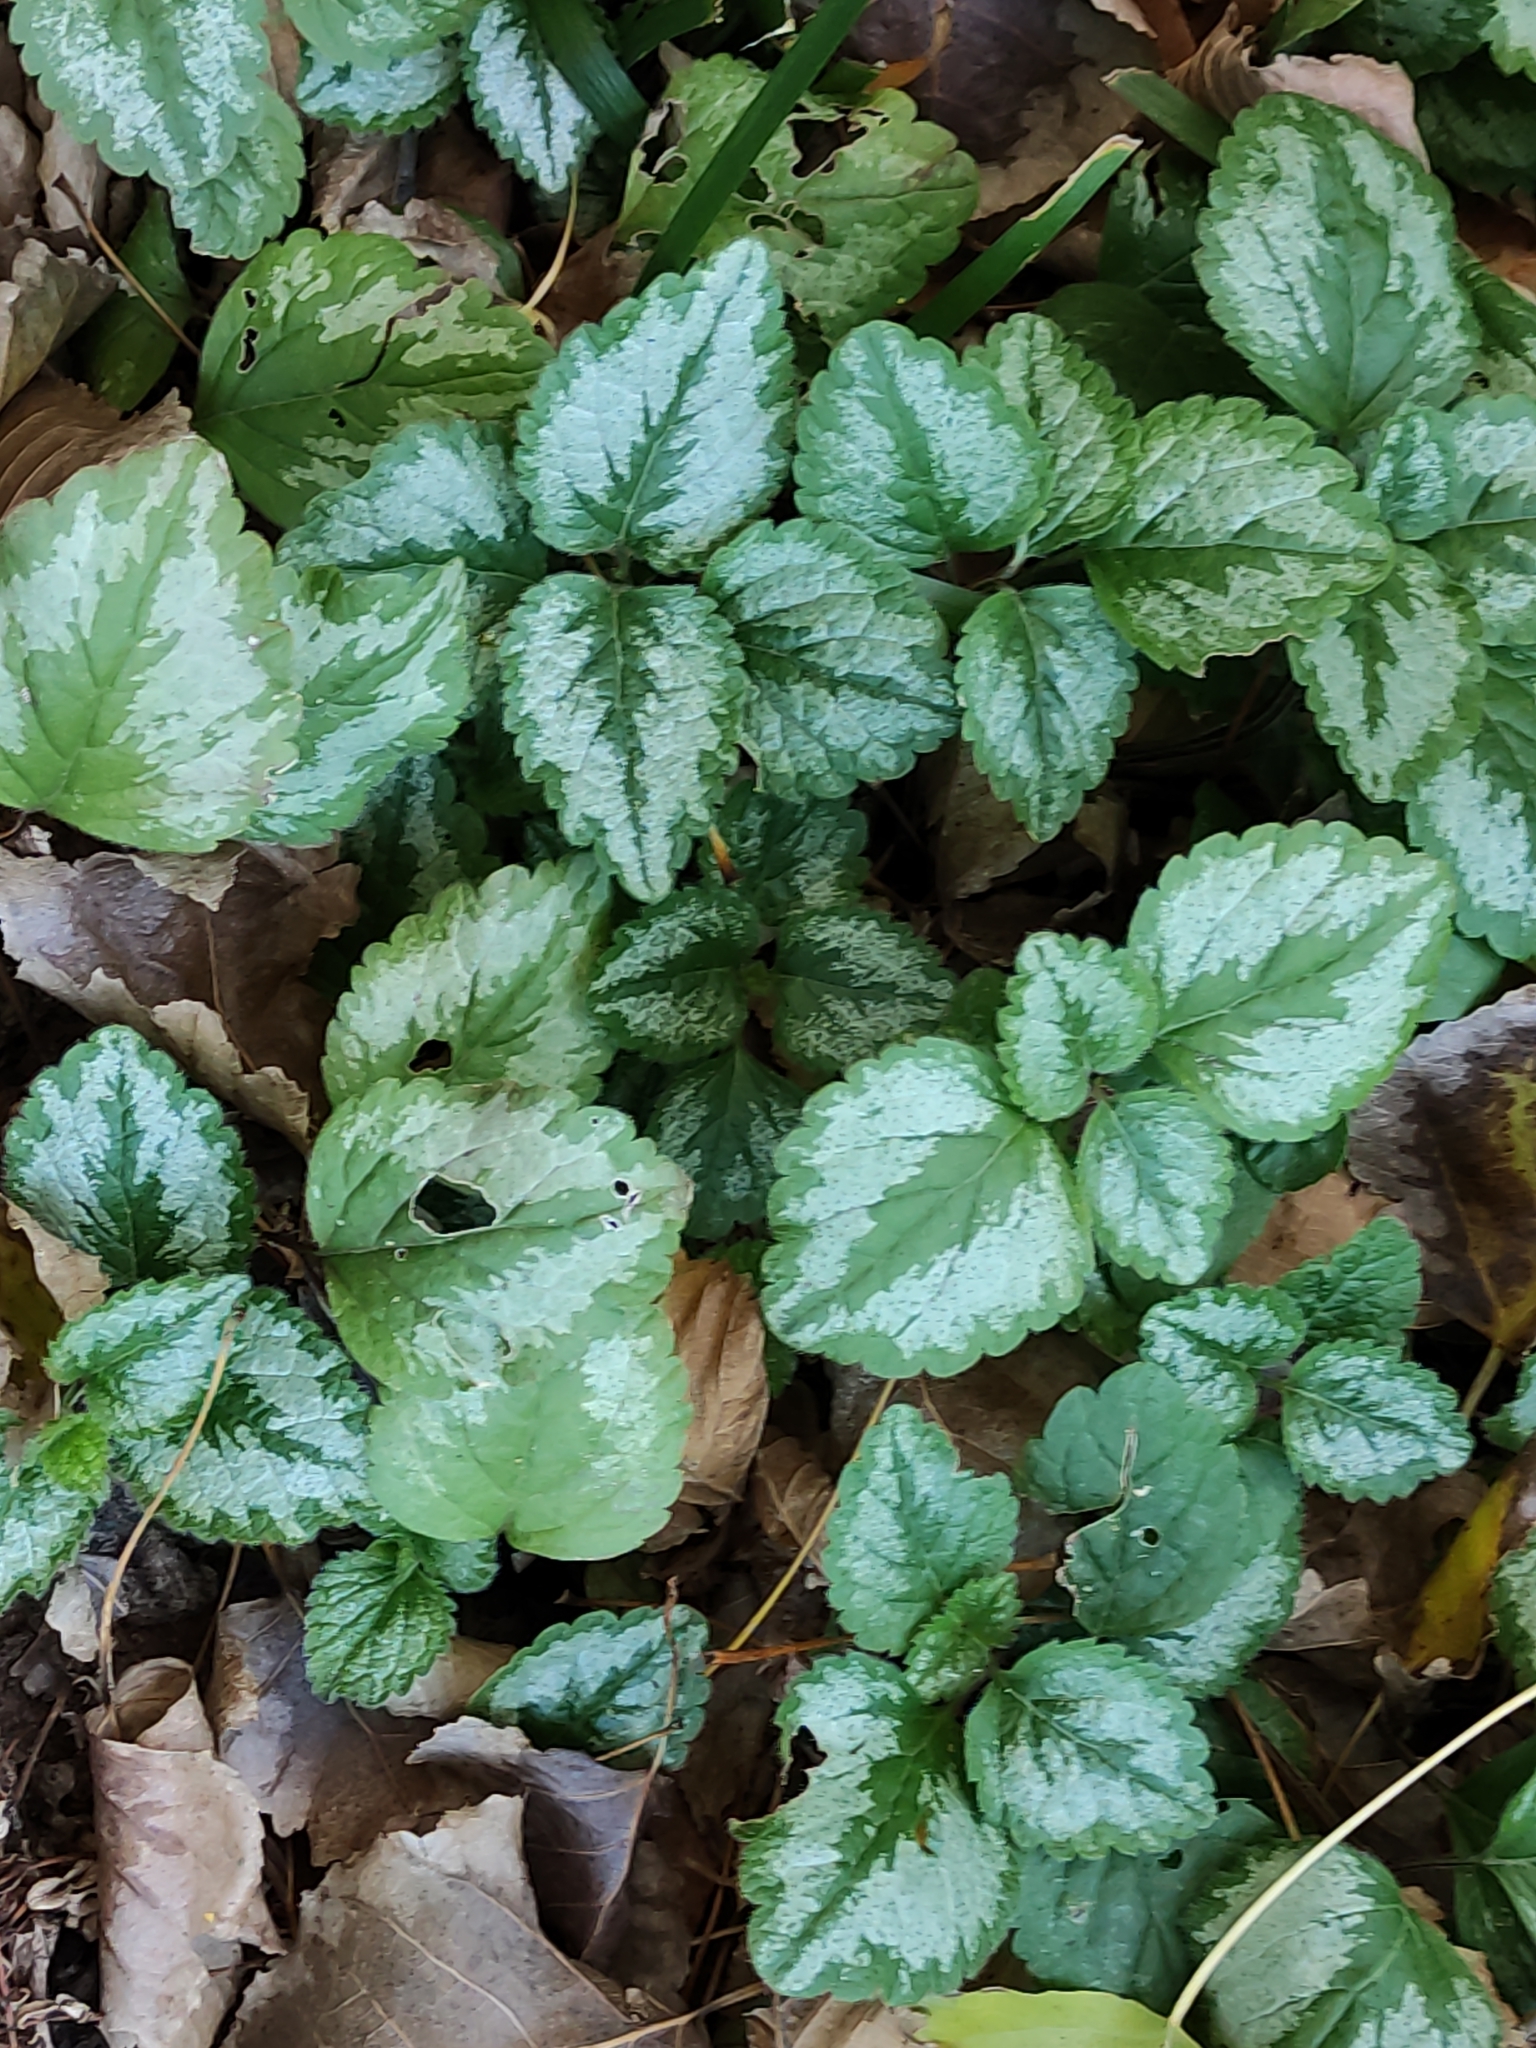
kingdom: Plantae
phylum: Tracheophyta
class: Magnoliopsida
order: Lamiales
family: Lamiaceae
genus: Lamium
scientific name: Lamium galeobdolon
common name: Yellow archangel
